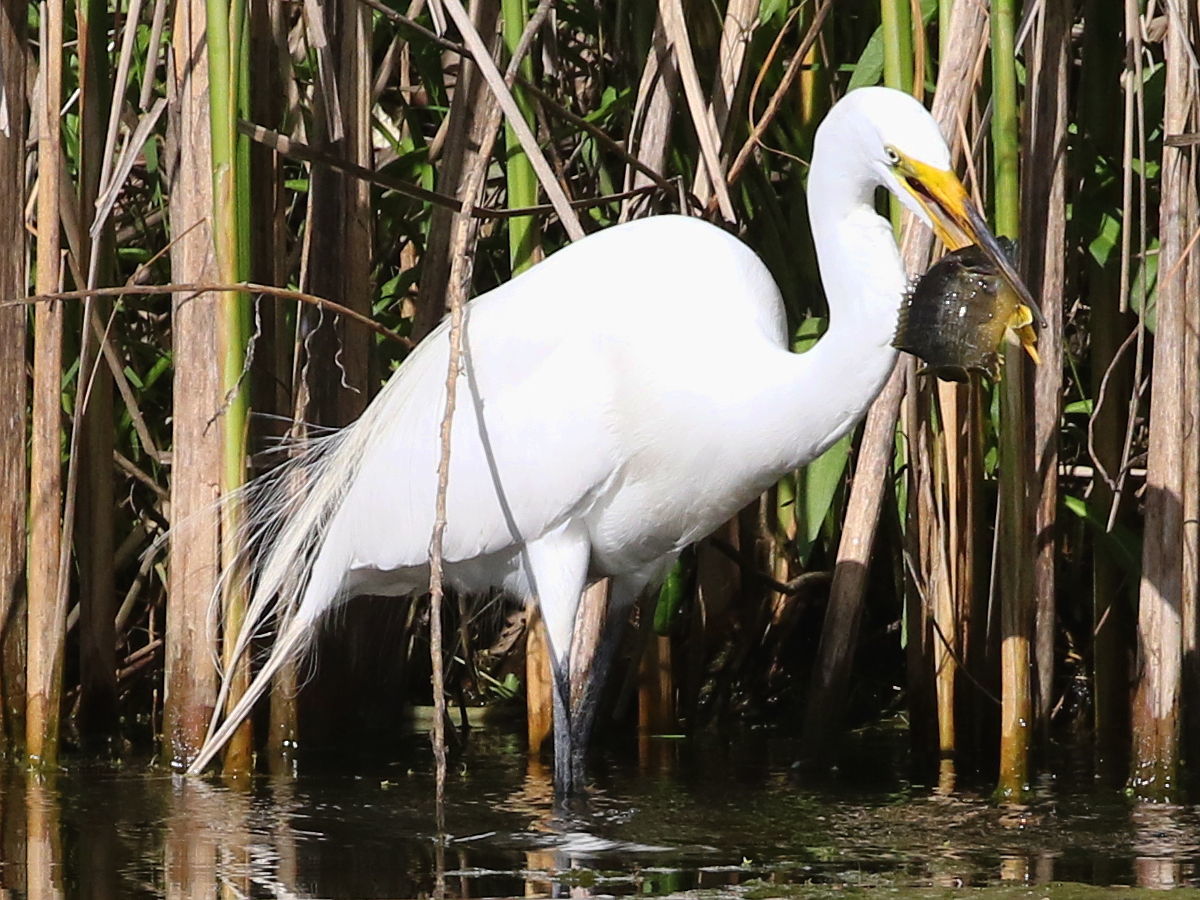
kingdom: Animalia
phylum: Chordata
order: Perciformes
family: Centrarchidae
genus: Lepomis
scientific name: Lepomis cyanellus
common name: Green sunfish
